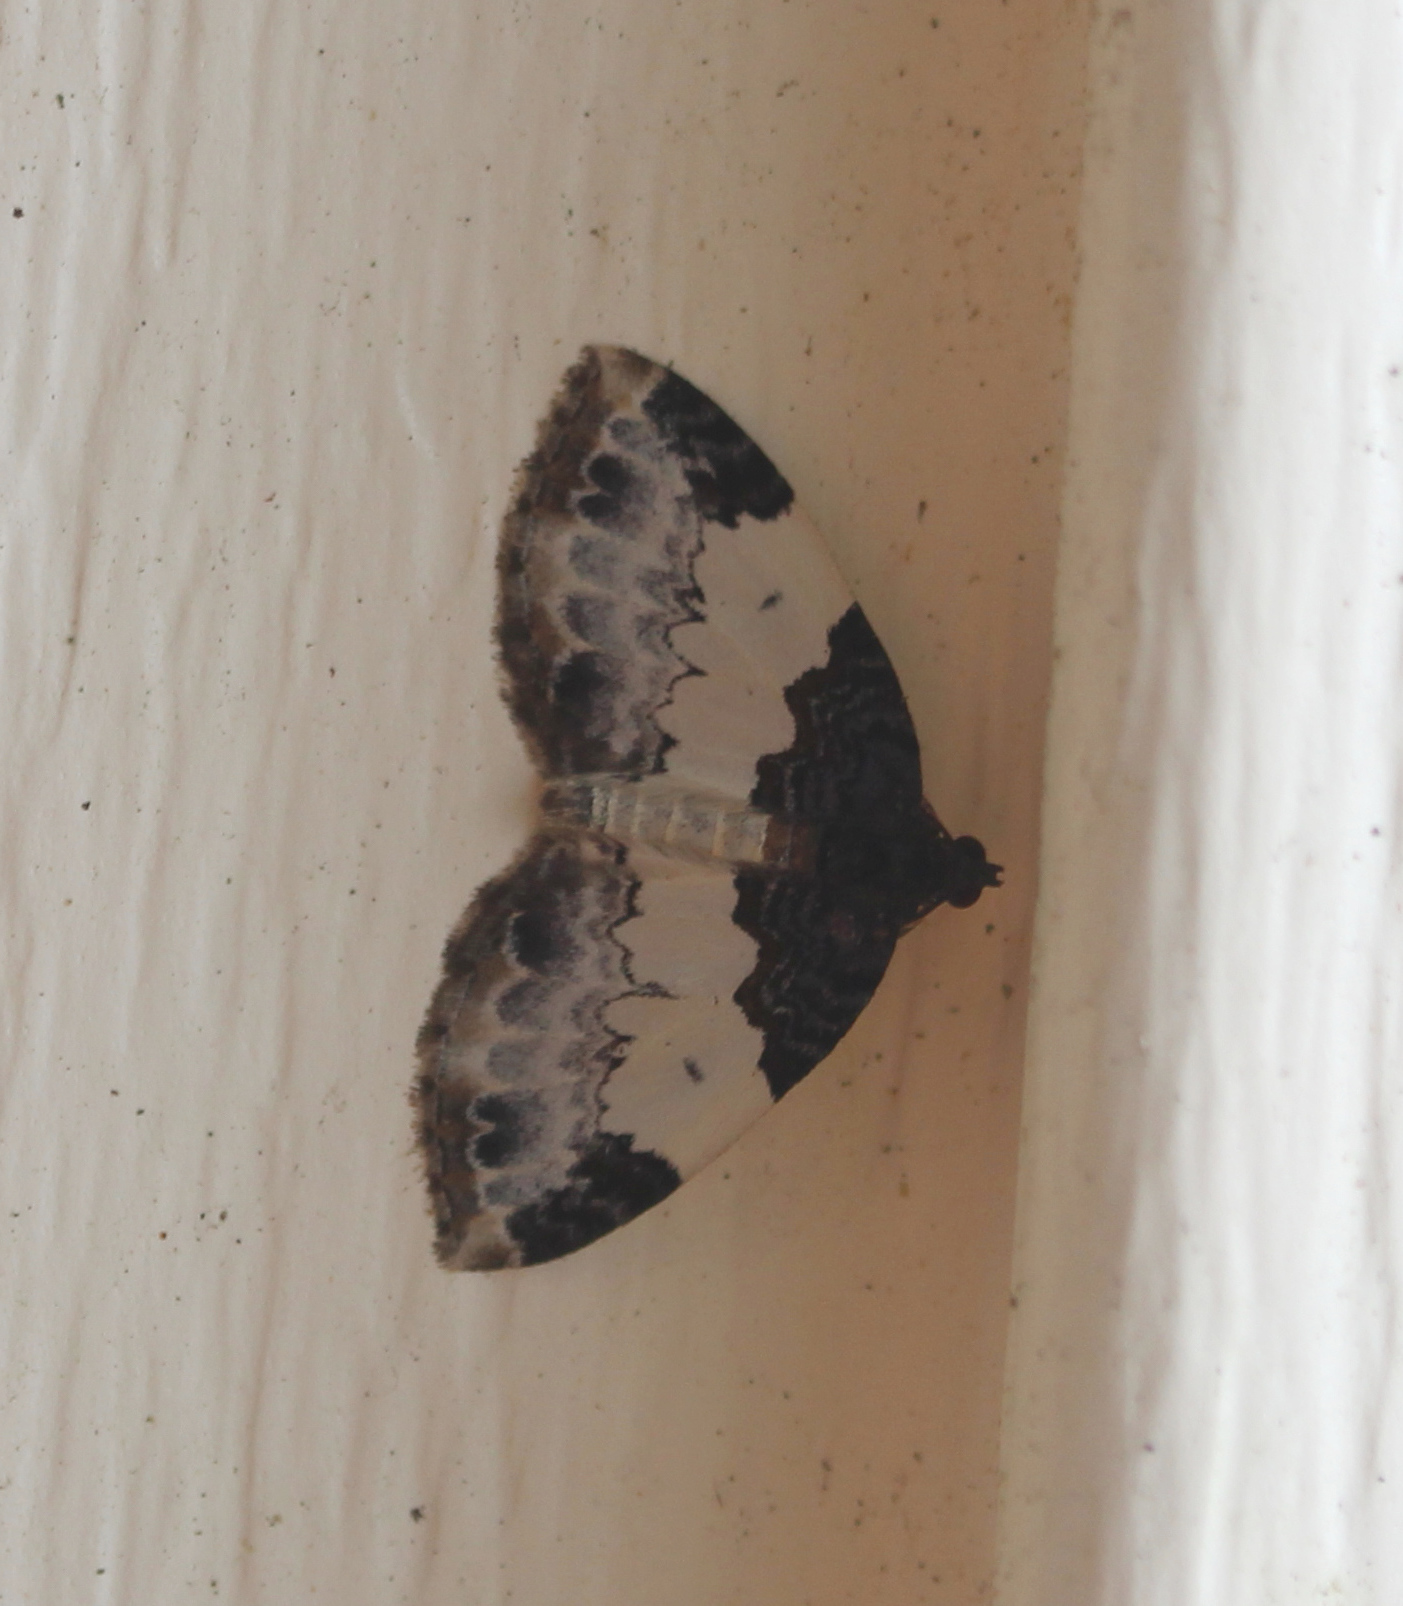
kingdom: Animalia
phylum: Arthropoda
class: Insecta
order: Lepidoptera
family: Geometridae
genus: Mesoleuca
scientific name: Mesoleuca ruficillata
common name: White-ribboned carpet moth
